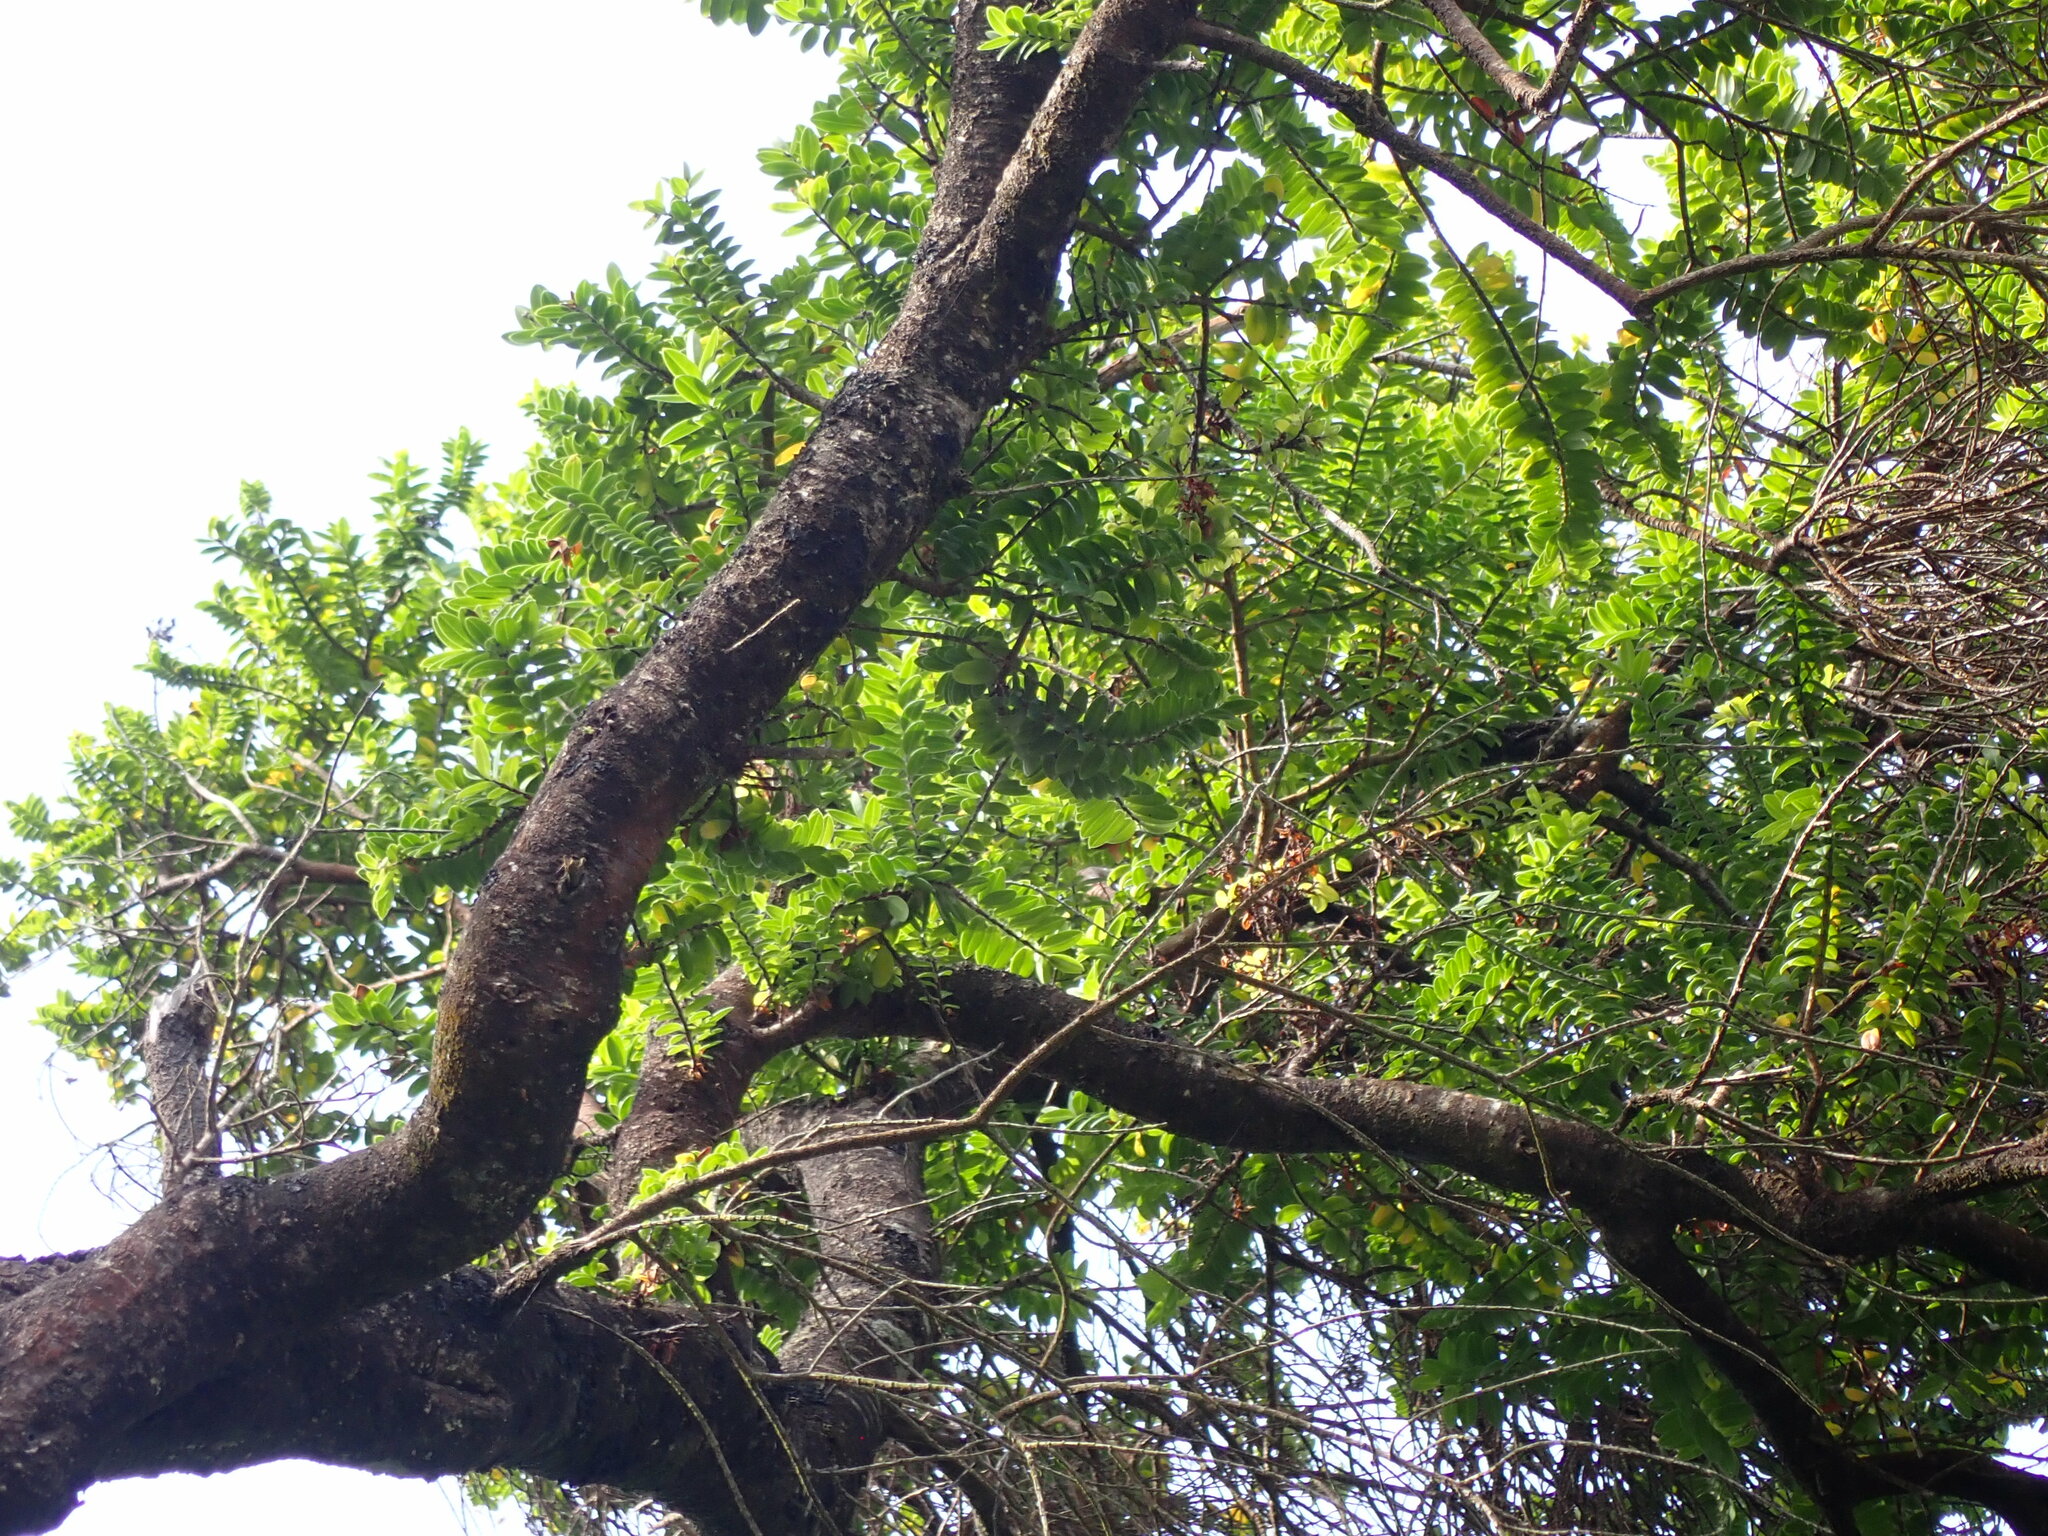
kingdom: Plantae
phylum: Tracheophyta
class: Magnoliopsida
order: Lamiales
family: Plantaginaceae
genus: Veronica
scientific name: Veronica elliptica
